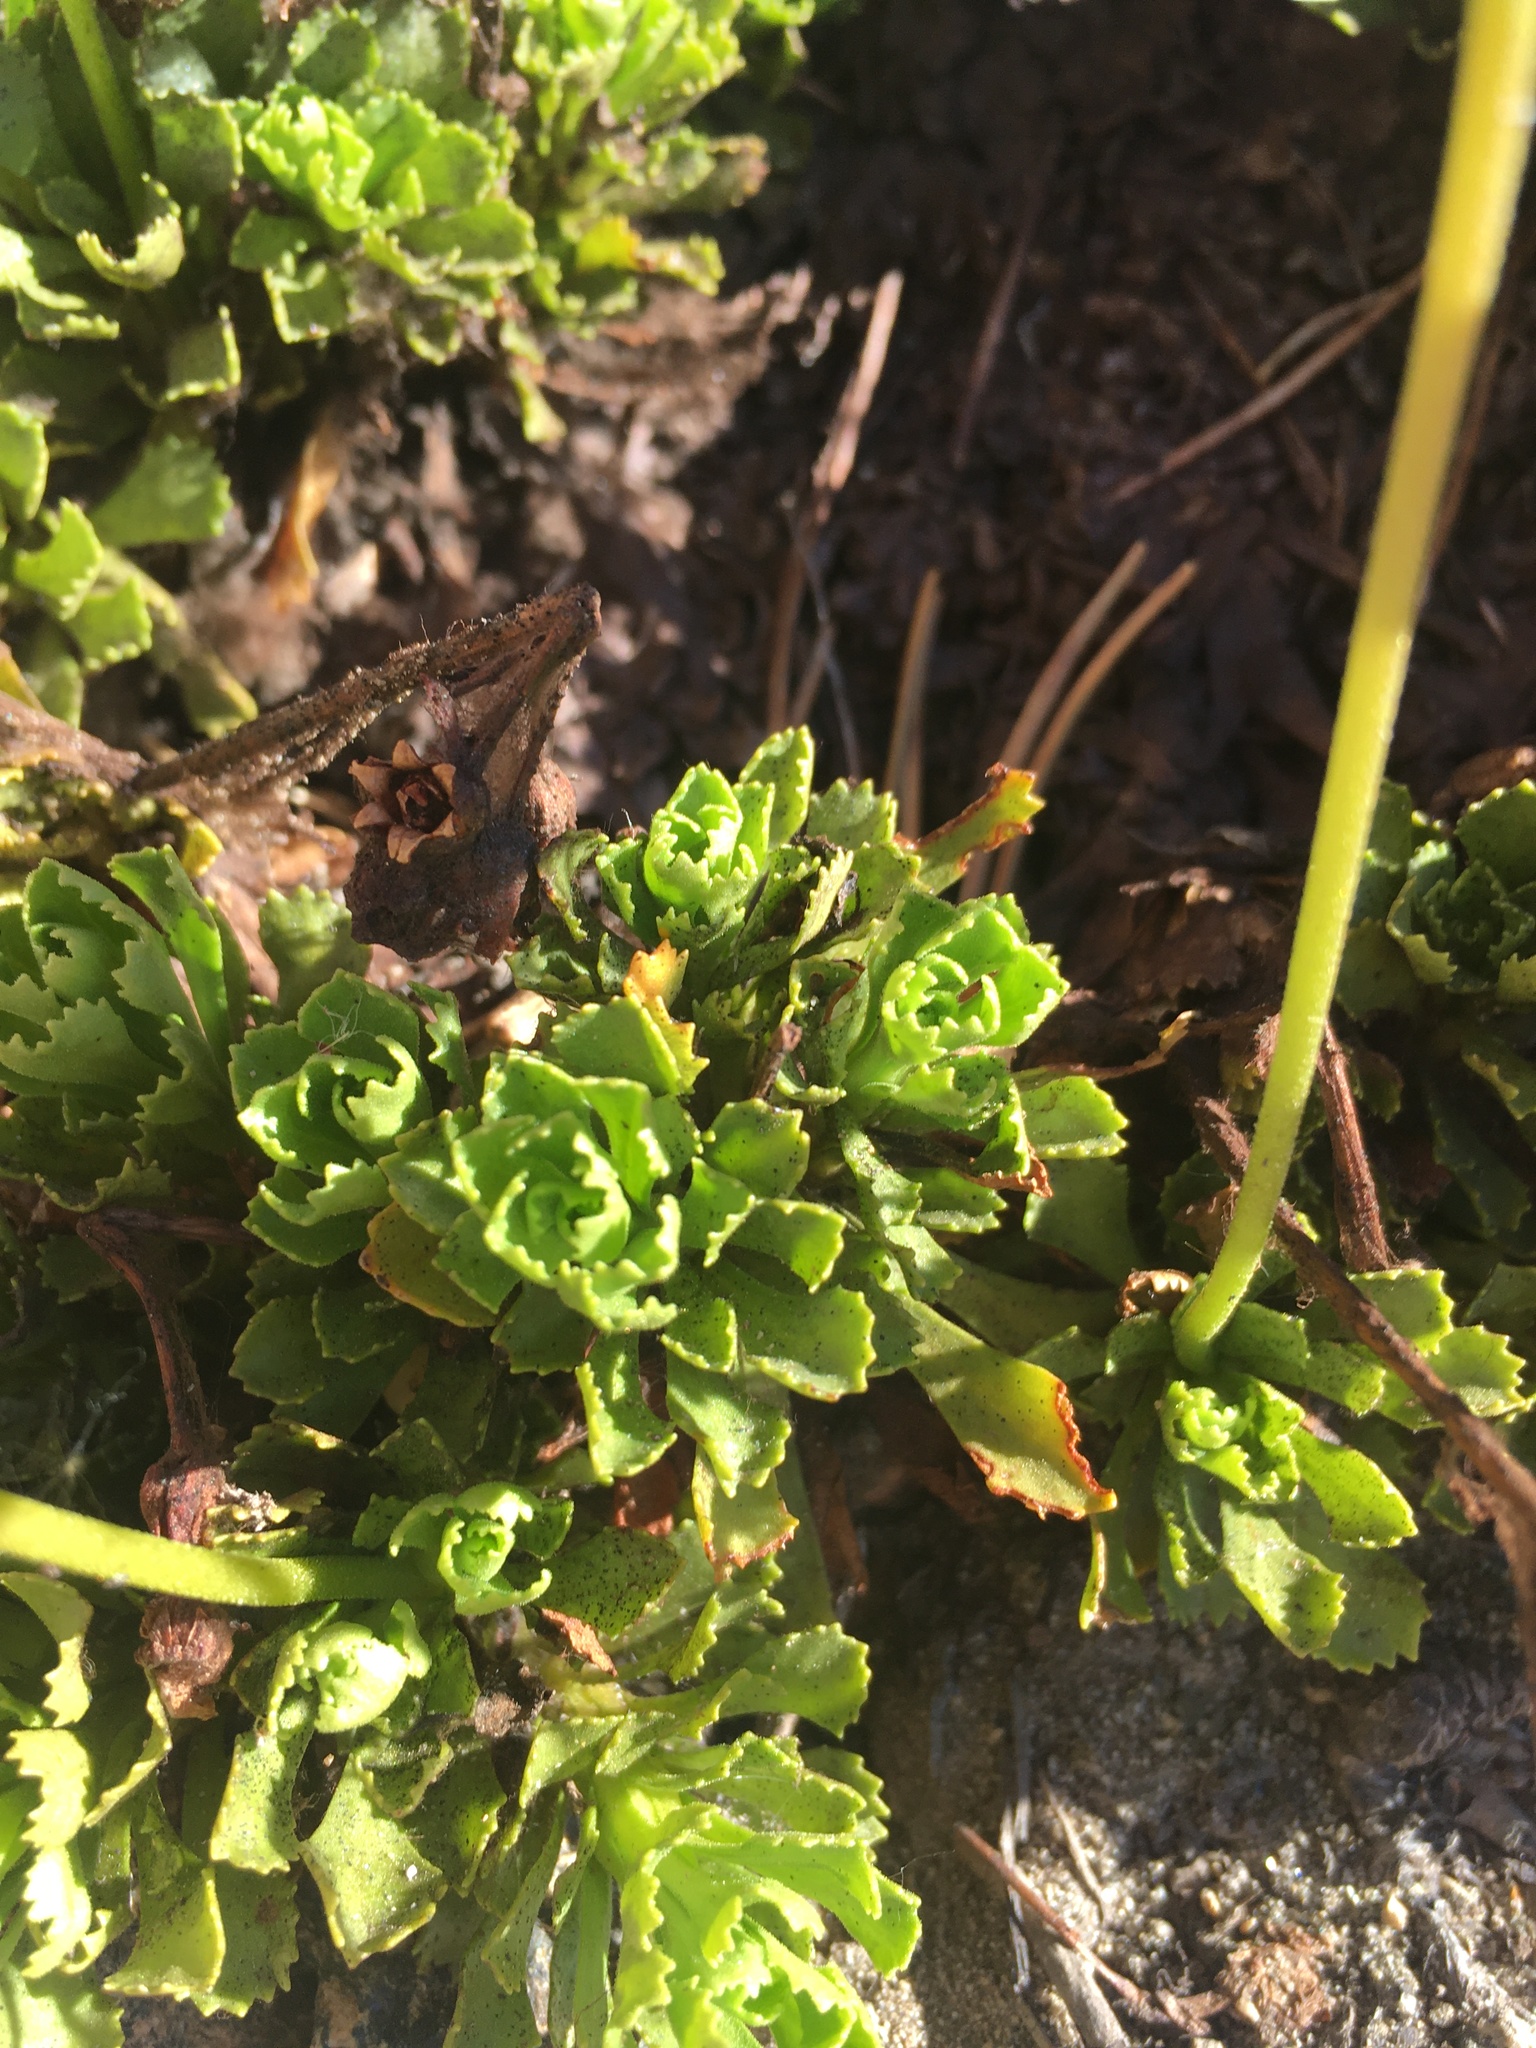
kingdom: Plantae
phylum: Tracheophyta
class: Magnoliopsida
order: Ericales
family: Primulaceae
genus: Primula
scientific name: Primula suffrutescens
